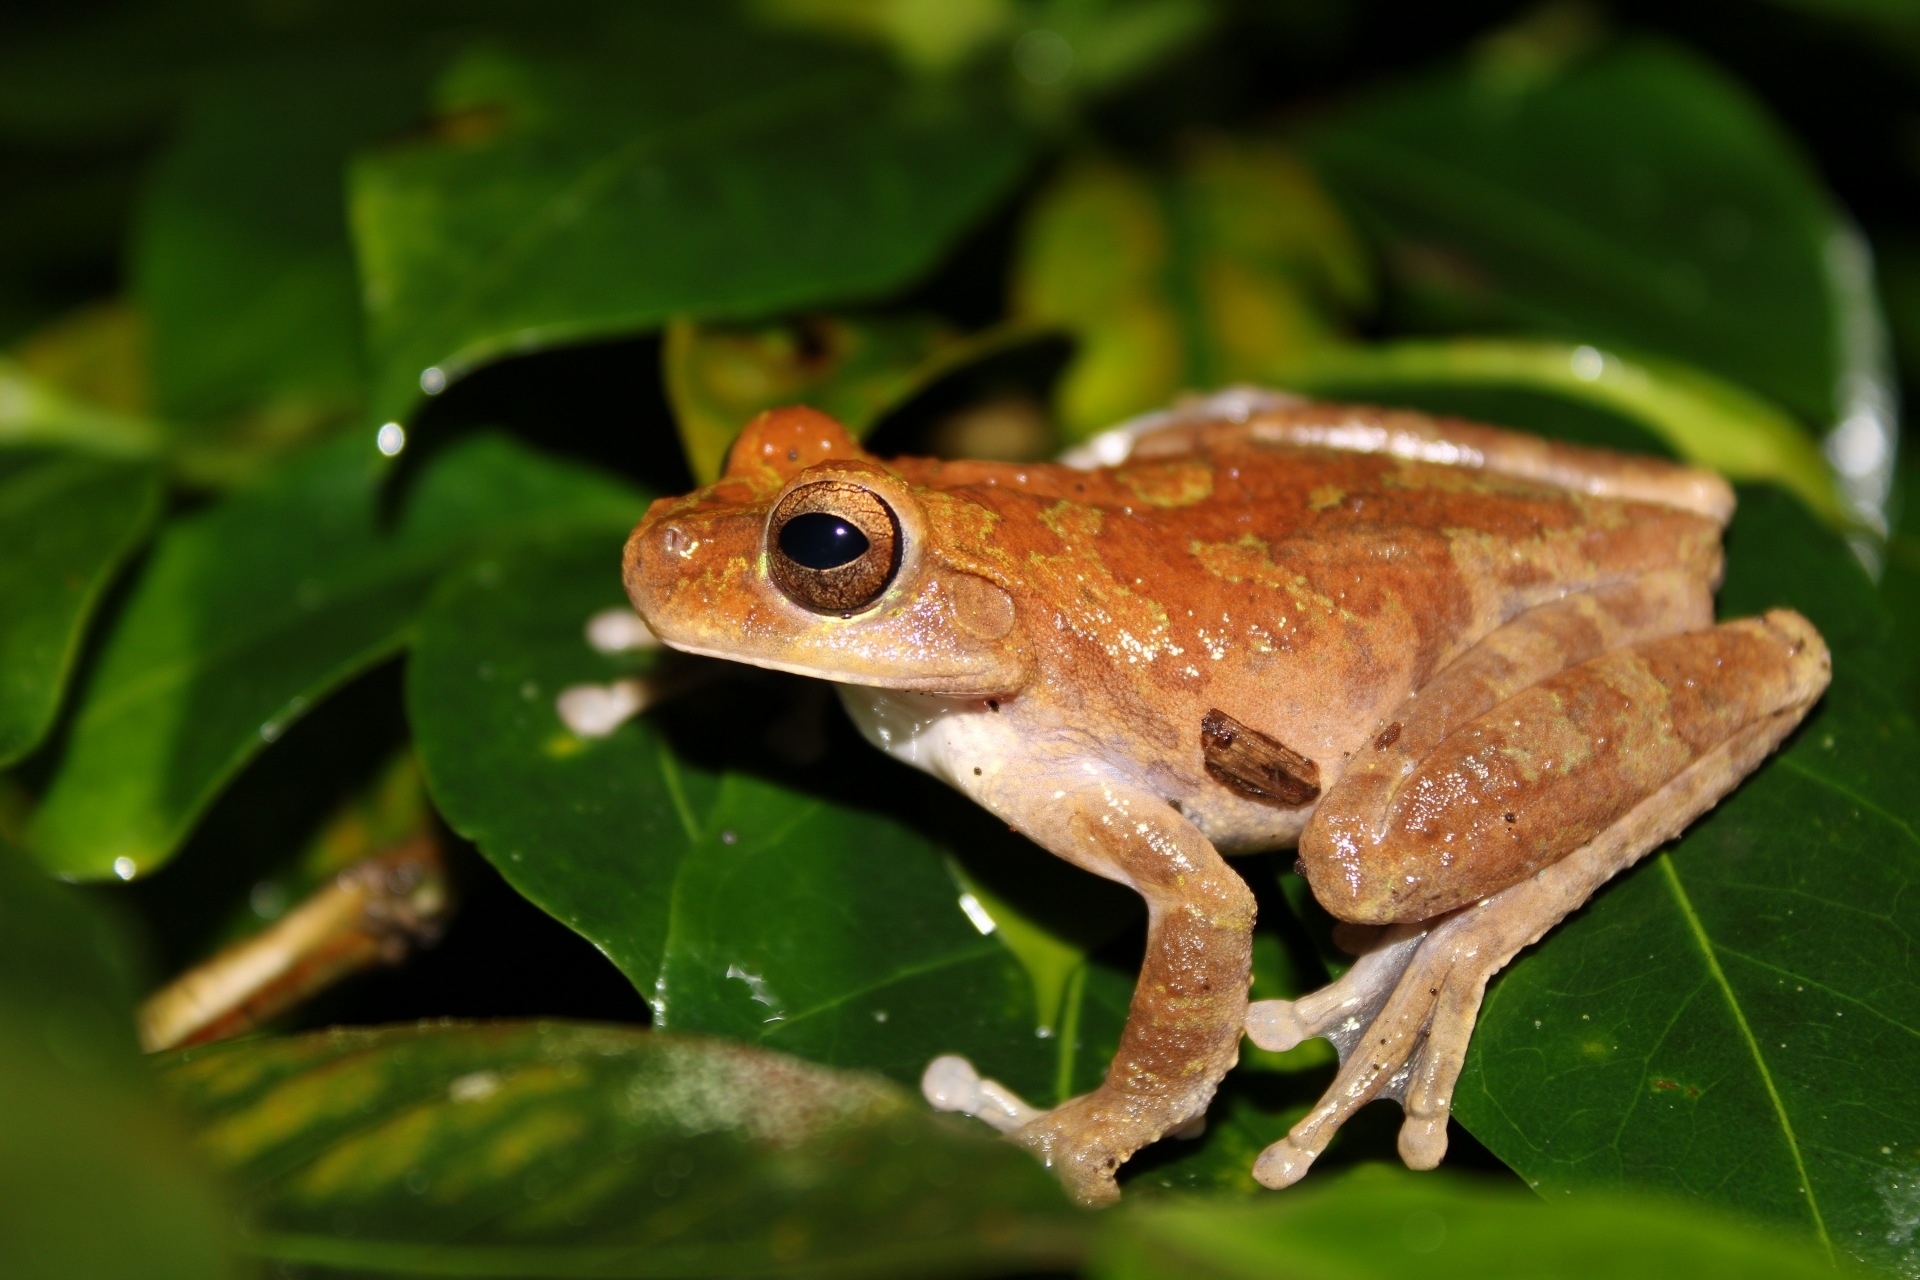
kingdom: Animalia
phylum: Chordata
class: Amphibia
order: Anura
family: Hylidae
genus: Smilisca
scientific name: Smilisca sordida
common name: Veragua cross-banded treefrog
